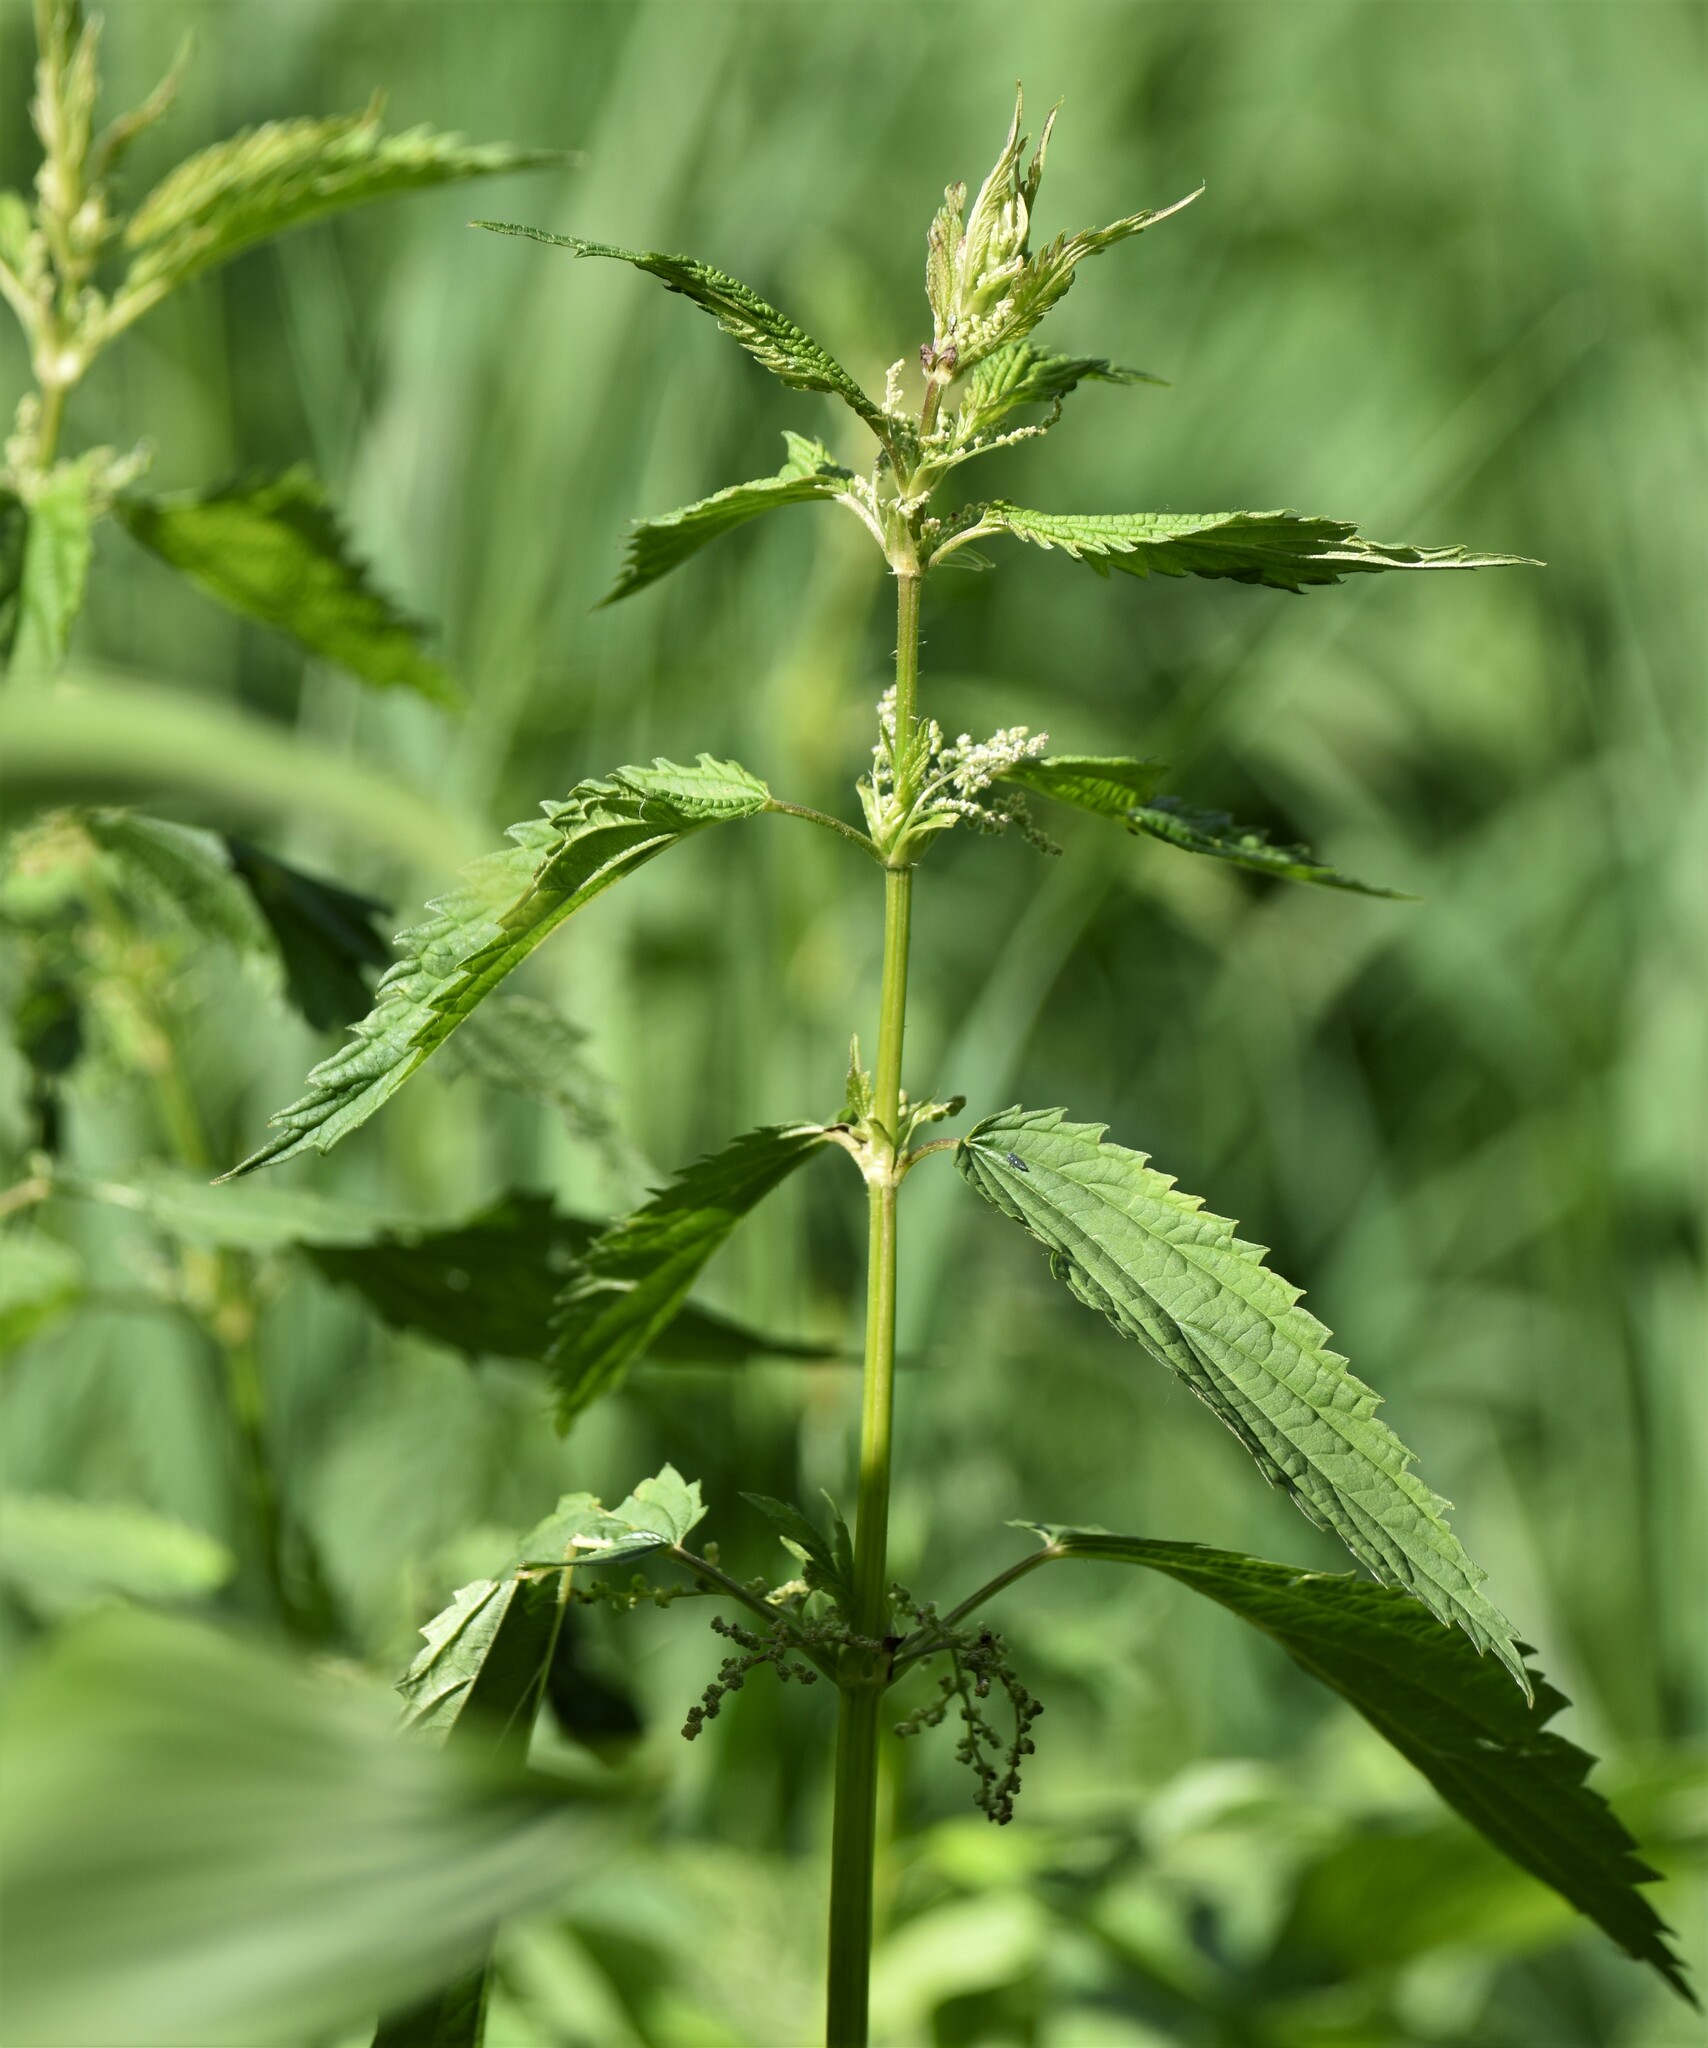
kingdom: Plantae
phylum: Tracheophyta
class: Magnoliopsida
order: Rosales
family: Urticaceae
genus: Urtica
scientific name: Urtica gracilis
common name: Slender stinging nettle
